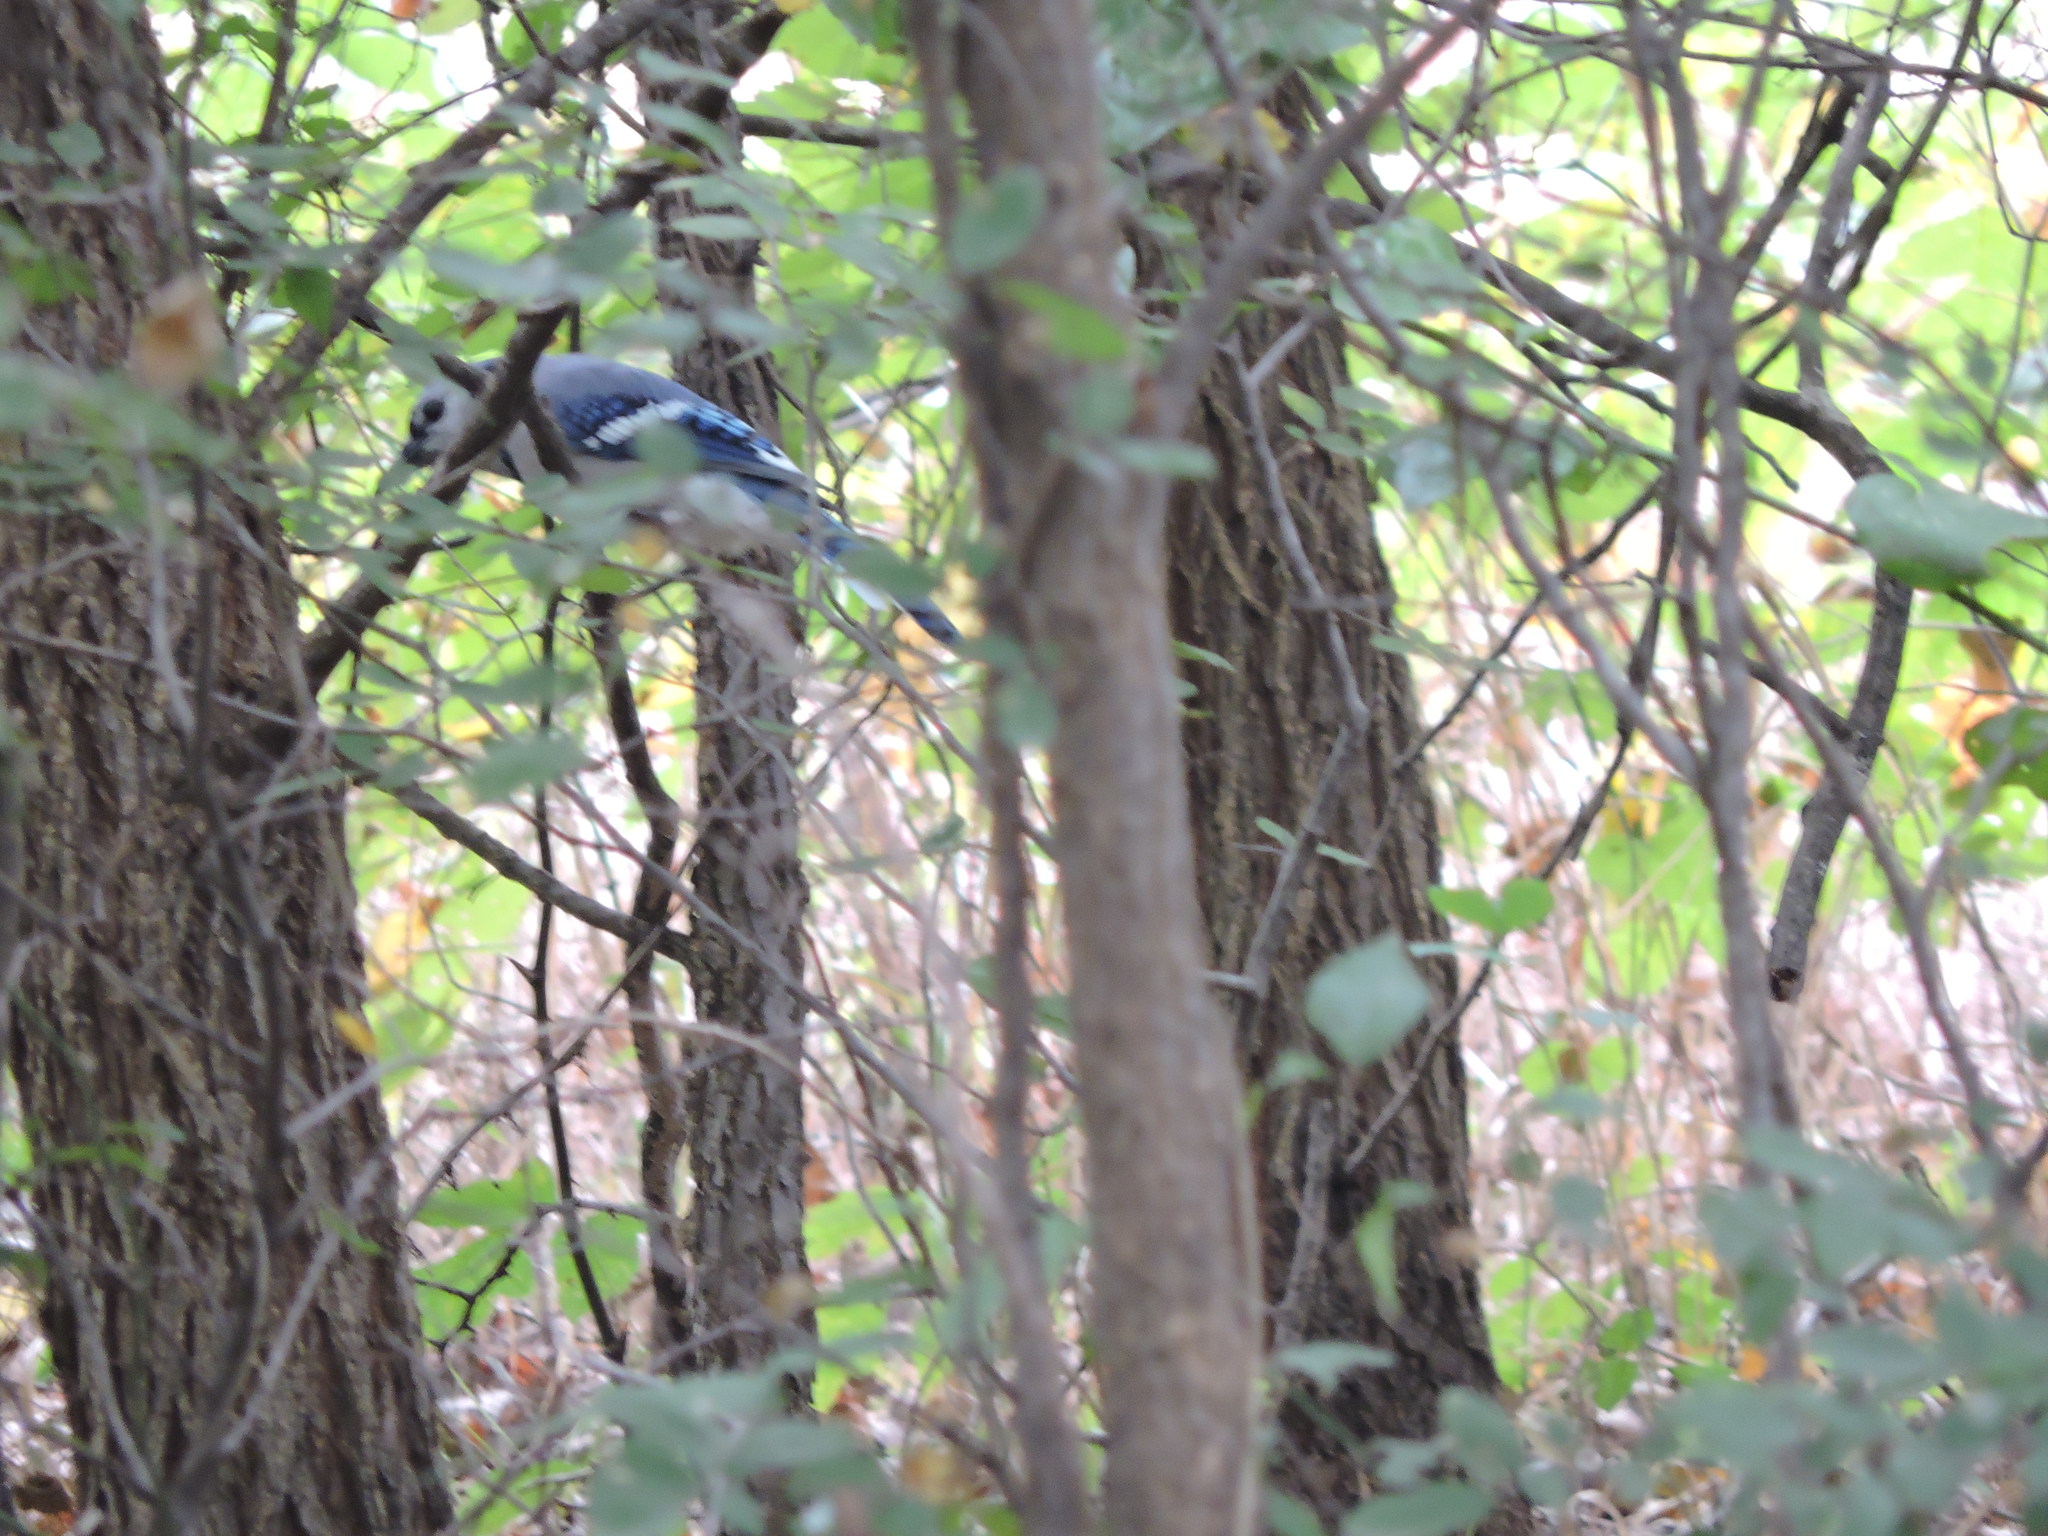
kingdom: Animalia
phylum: Chordata
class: Aves
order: Passeriformes
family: Corvidae
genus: Cyanocitta
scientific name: Cyanocitta cristata
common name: Blue jay
